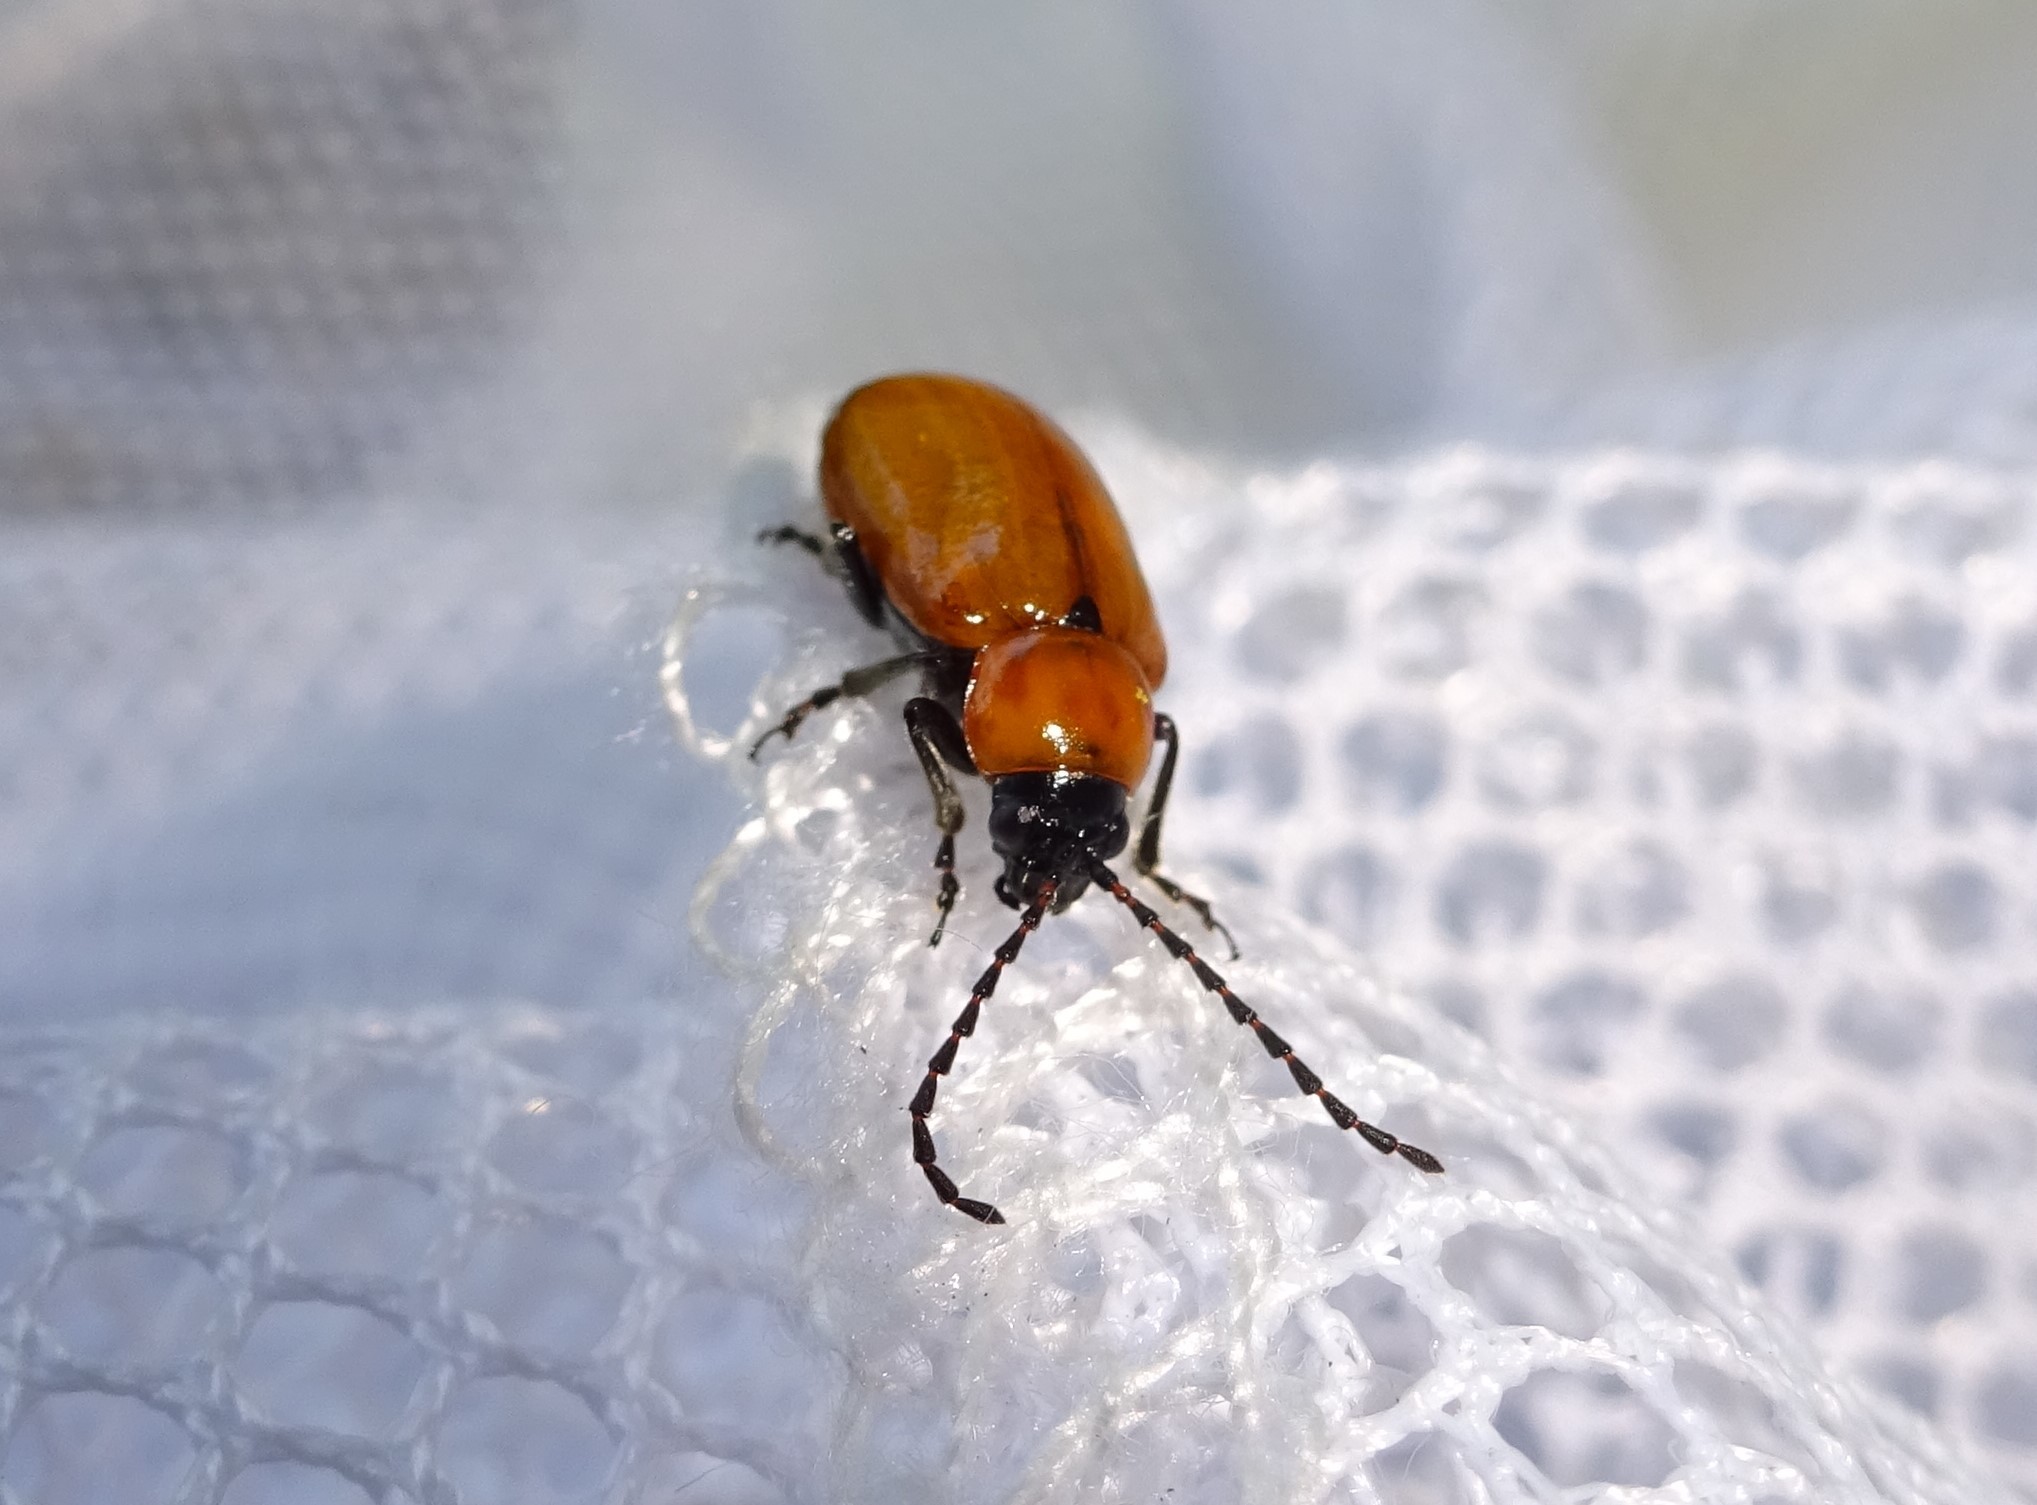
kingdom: Animalia
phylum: Arthropoda
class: Insecta
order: Coleoptera
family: Chrysomelidae
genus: Exosoma
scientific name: Exosoma lusitanicum
